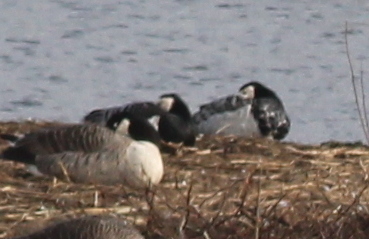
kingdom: Animalia
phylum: Chordata
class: Aves
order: Anseriformes
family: Anatidae
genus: Branta
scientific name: Branta leucopsis
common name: Barnacle goose
